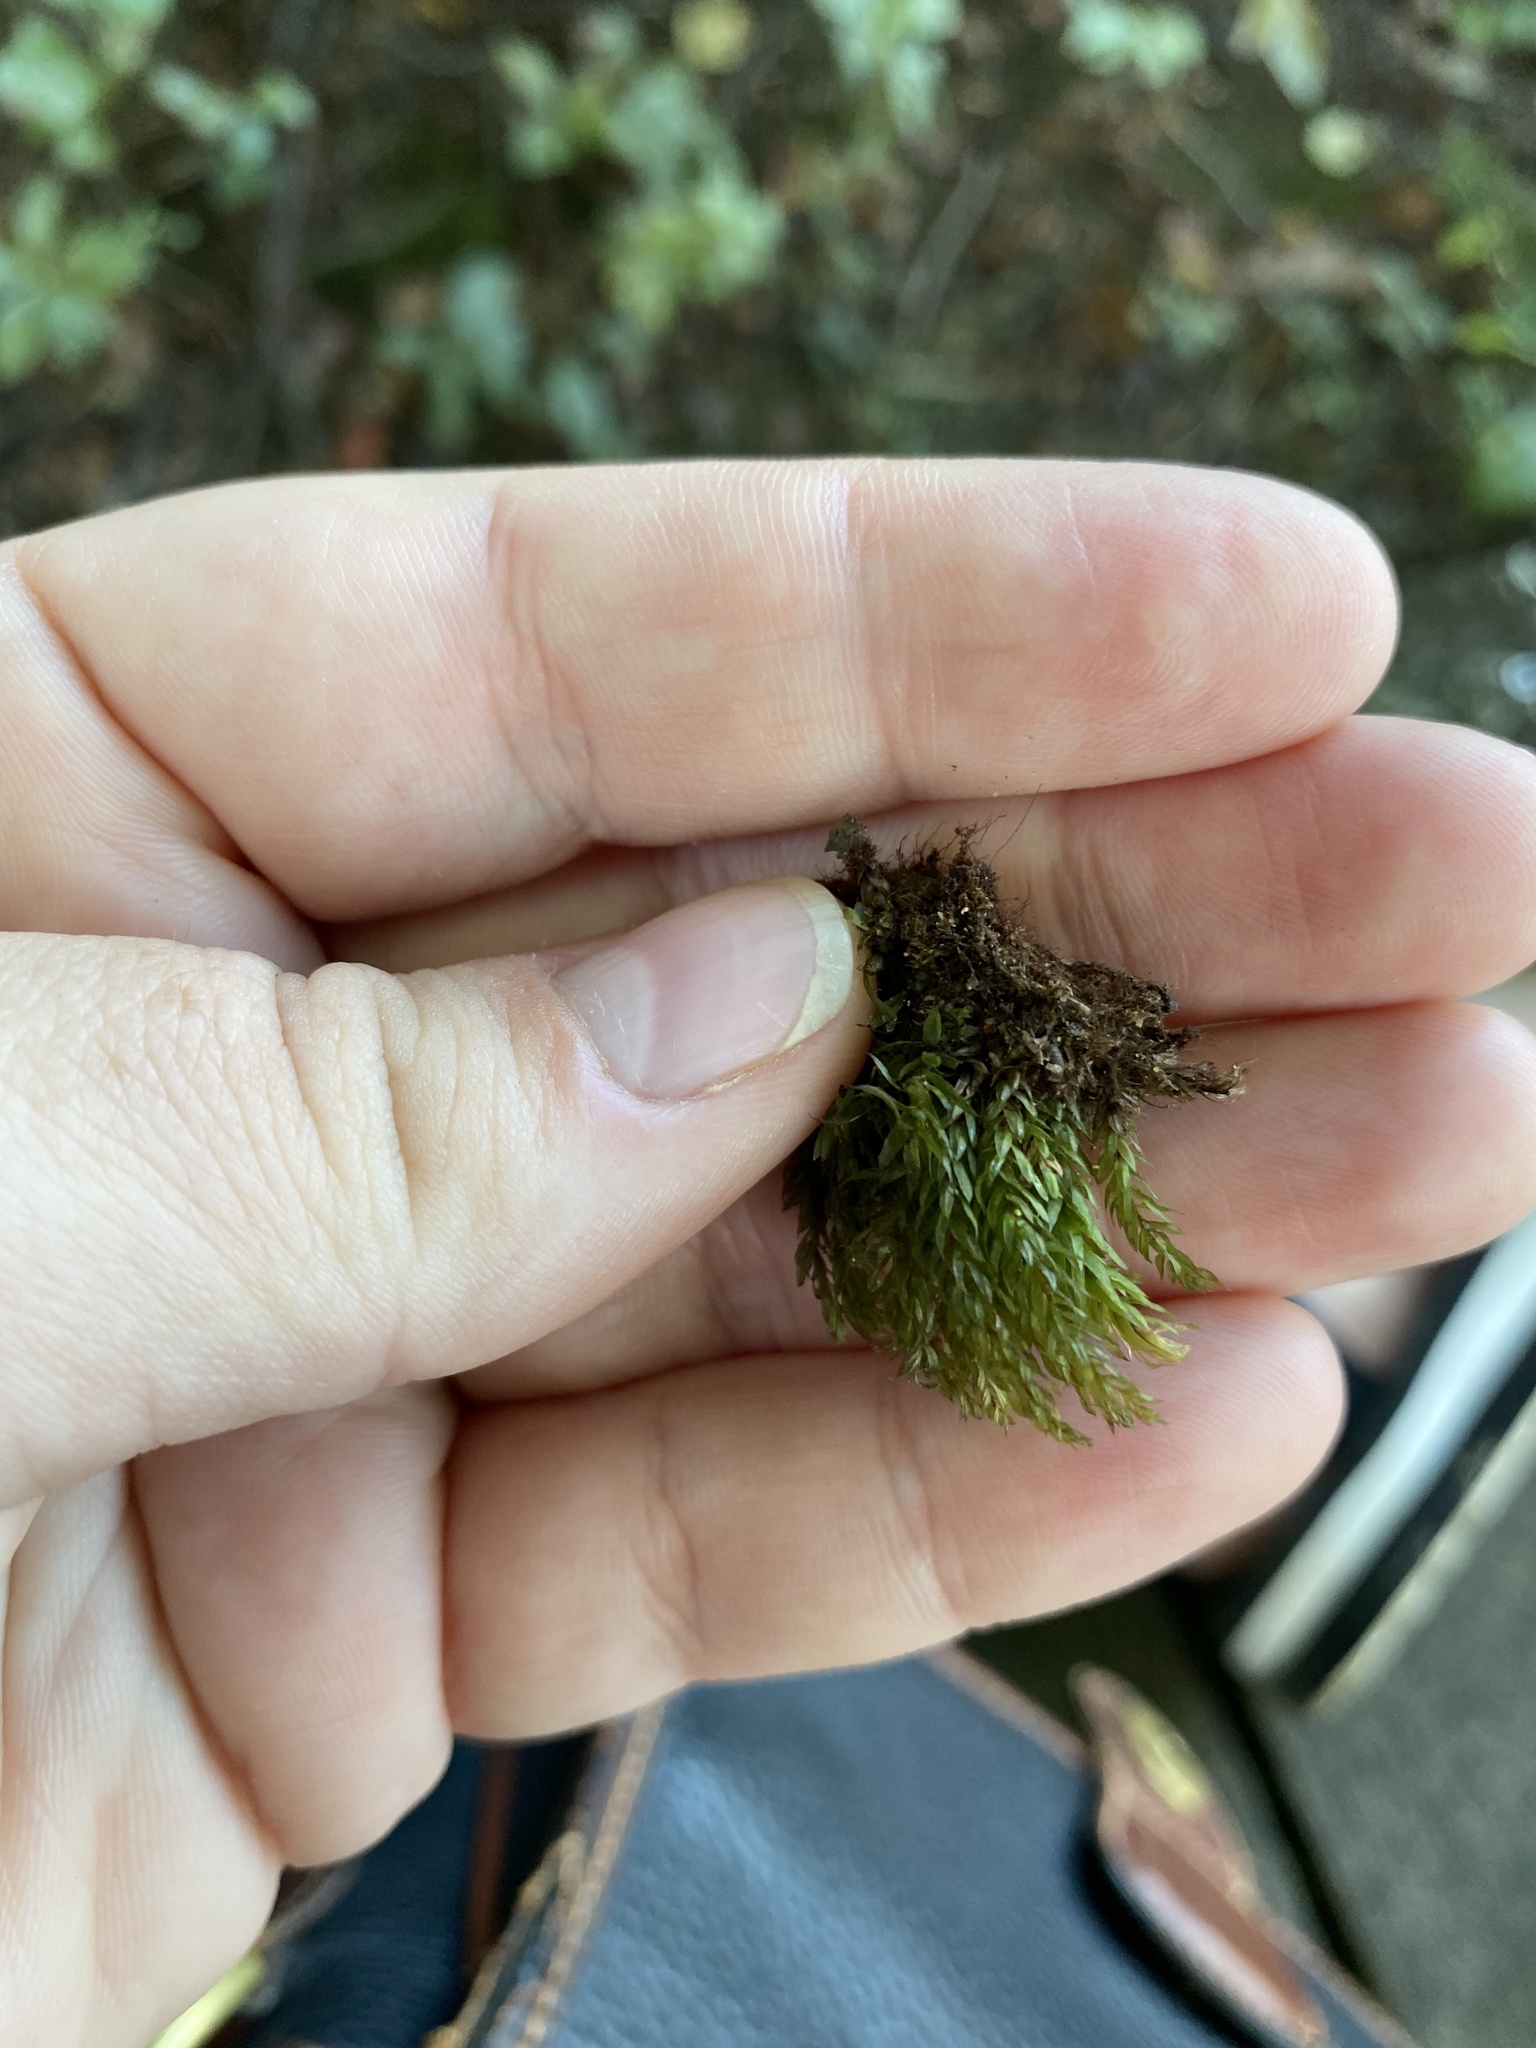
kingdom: Plantae
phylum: Bryophyta
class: Bryopsida
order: Bryales
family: Mniaceae
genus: Mnium
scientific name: Mnium hornum
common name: Swan's-neck leafy moss
